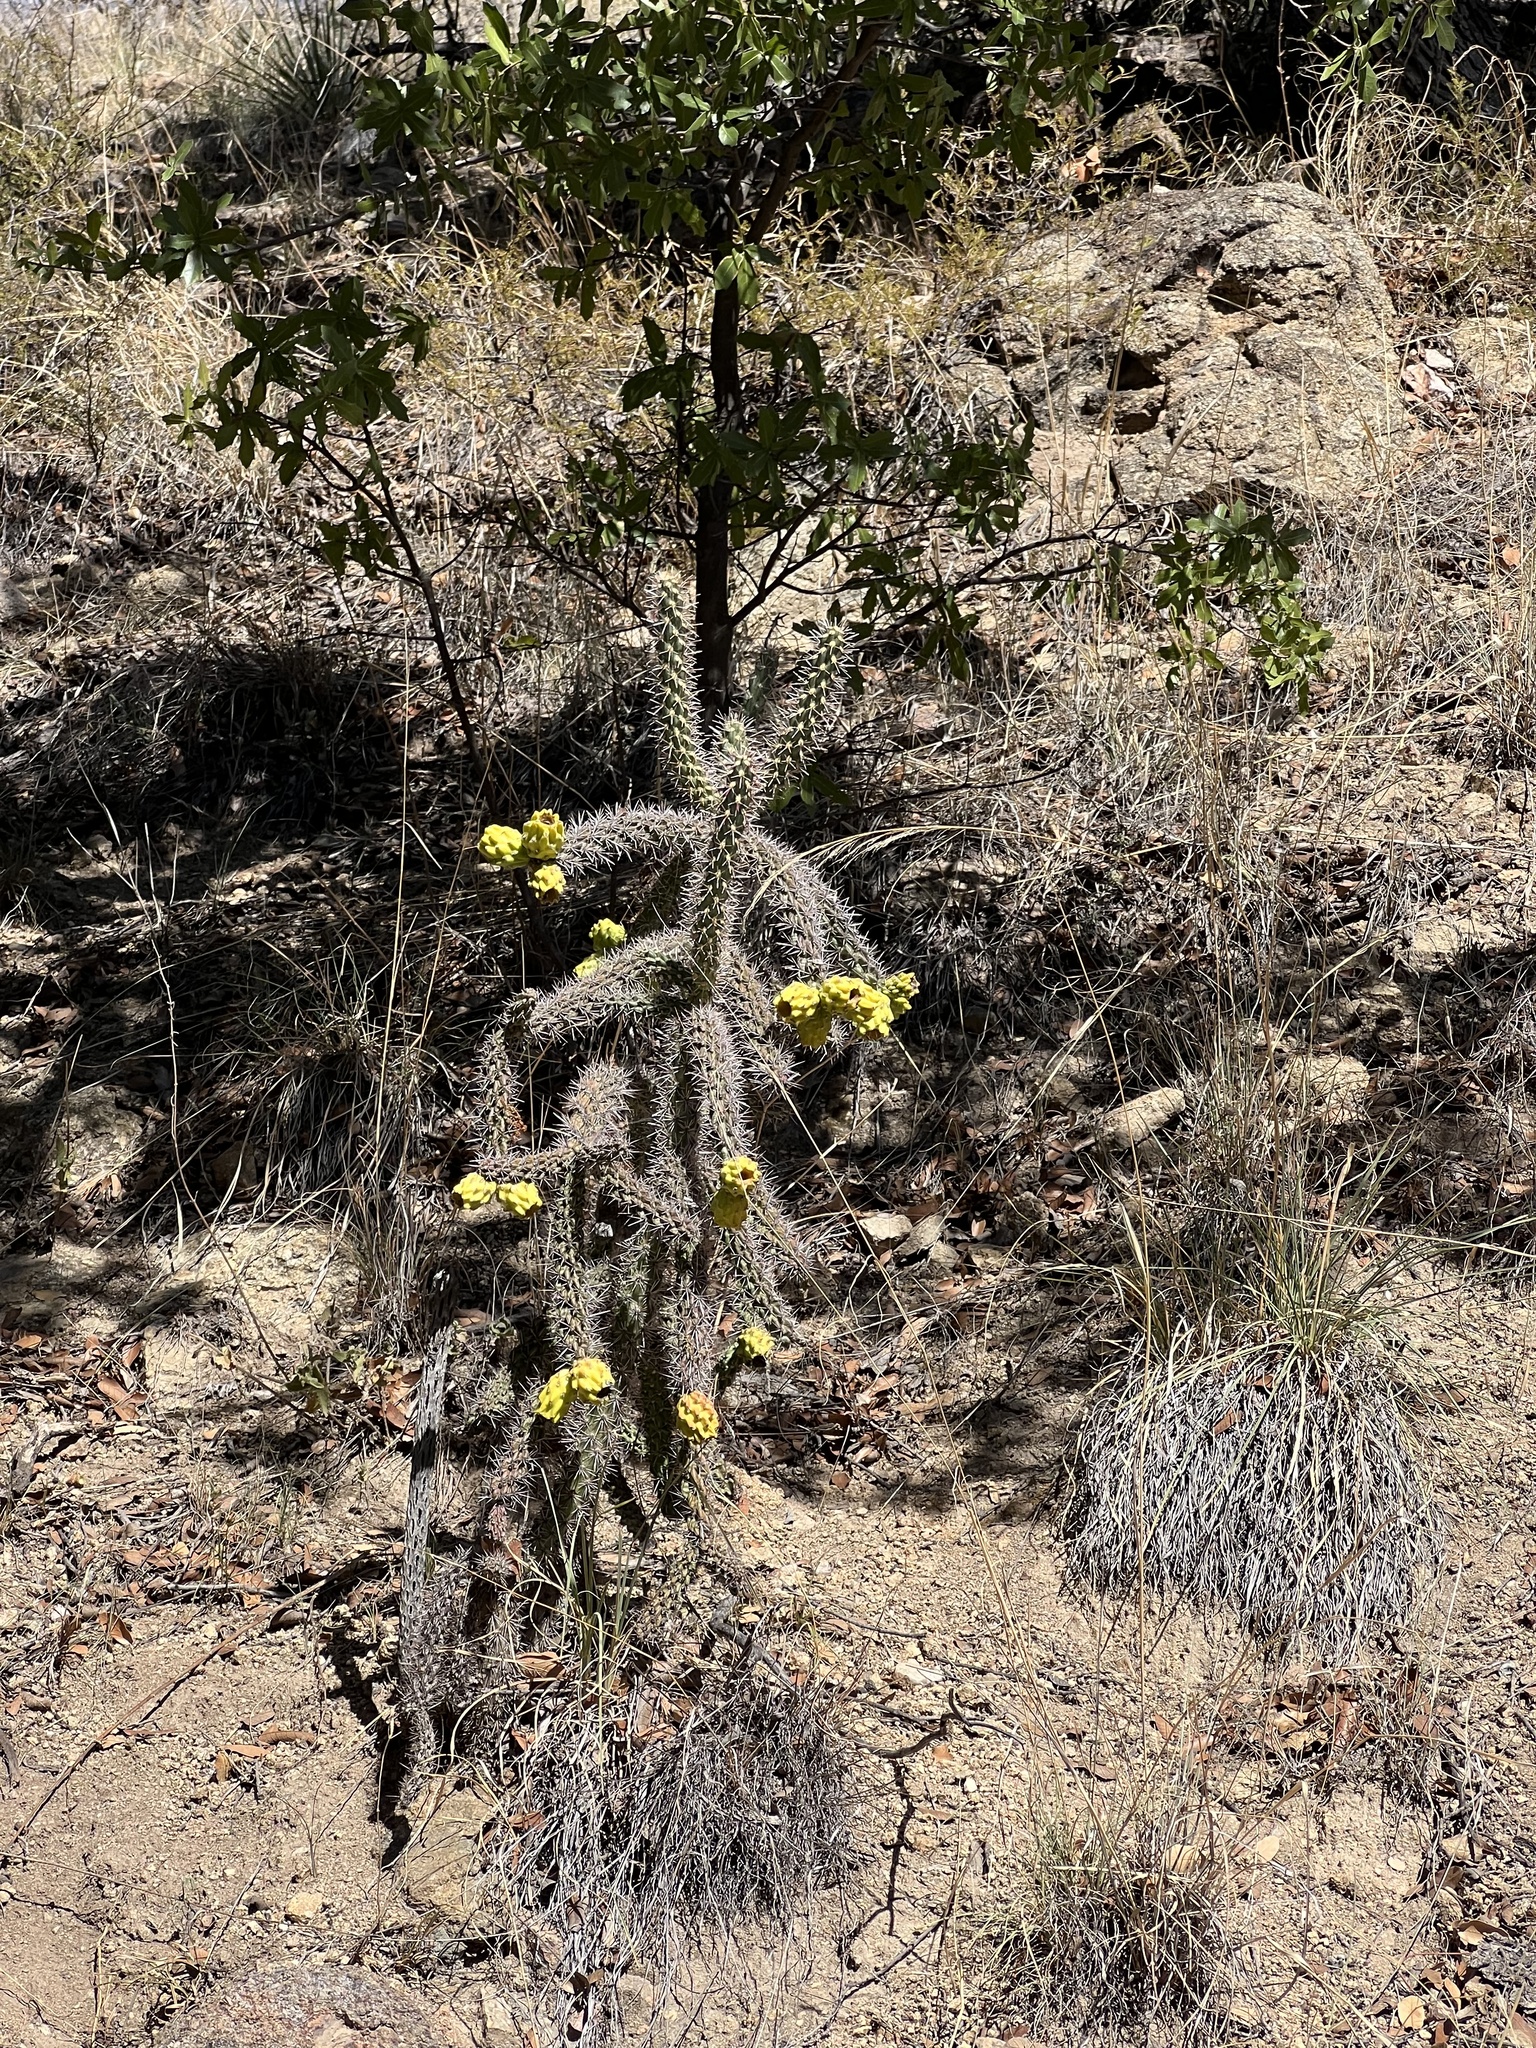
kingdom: Plantae
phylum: Tracheophyta
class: Magnoliopsida
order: Caryophyllales
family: Cactaceae
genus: Cylindropuntia
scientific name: Cylindropuntia imbricata
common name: Candelabrum cactus
